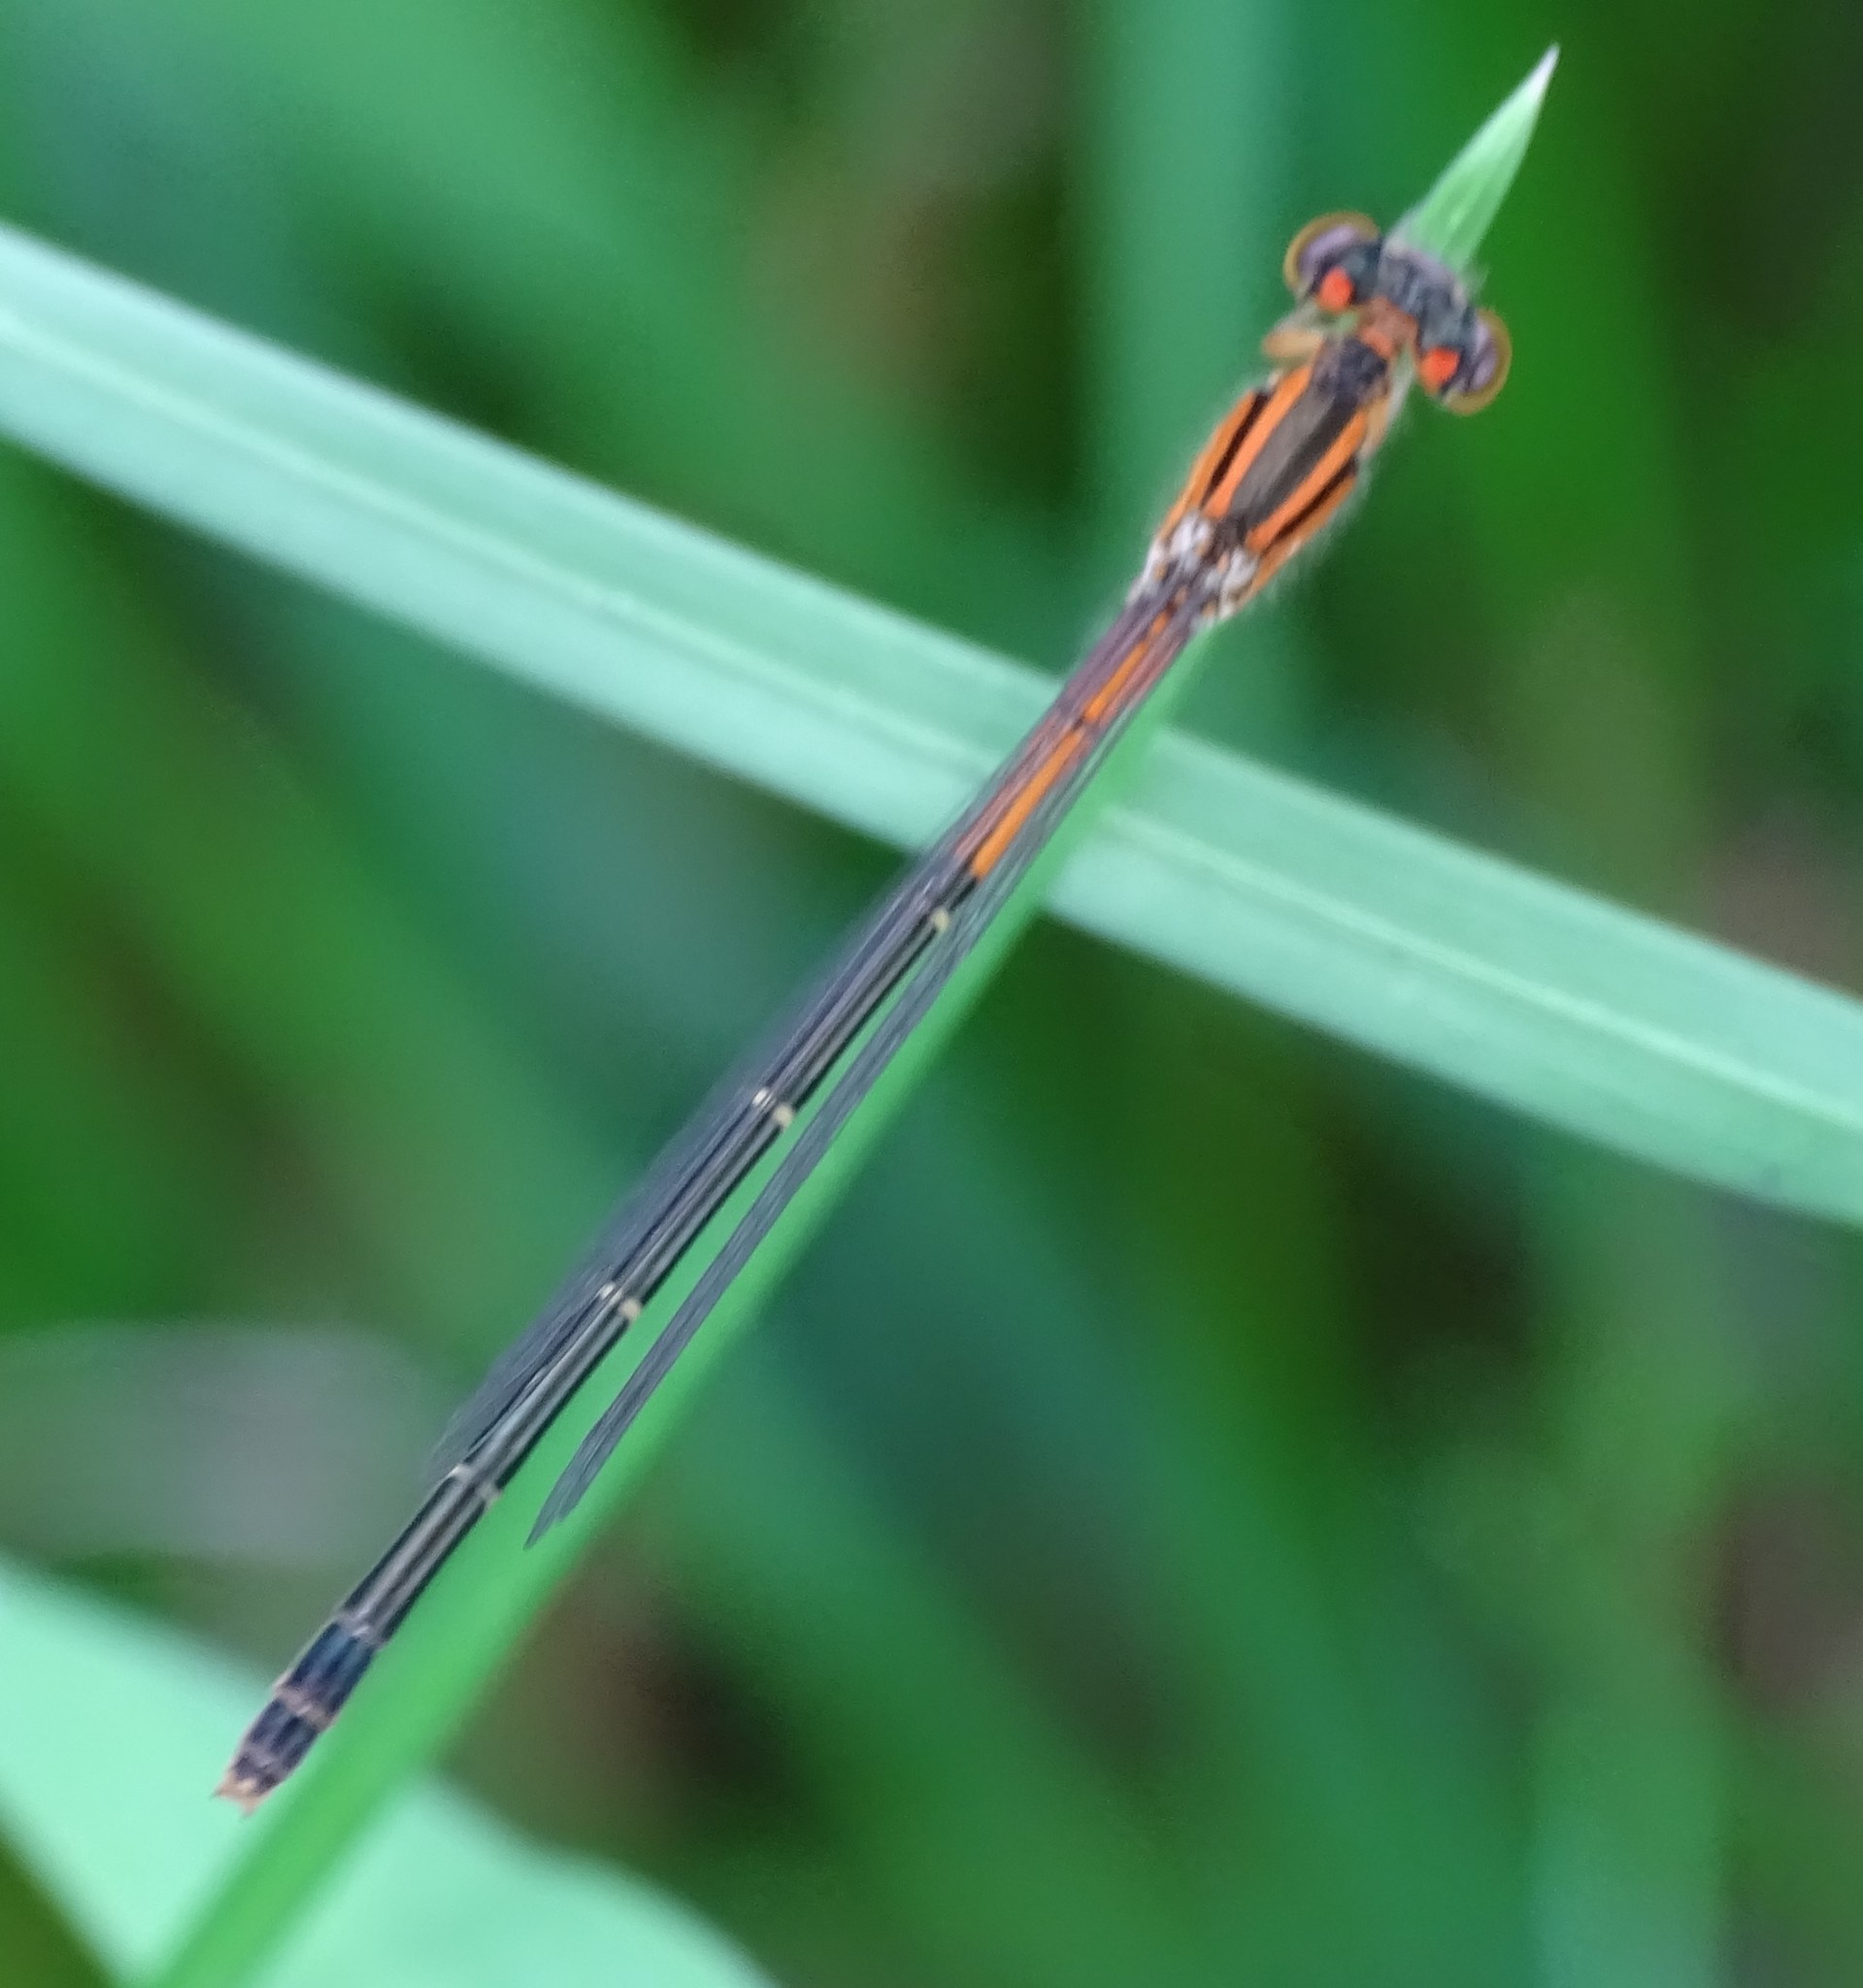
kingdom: Animalia
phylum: Arthropoda
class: Insecta
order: Odonata
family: Coenagrionidae
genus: Ischnura
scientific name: Ischnura verticalis
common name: Eastern forktail
